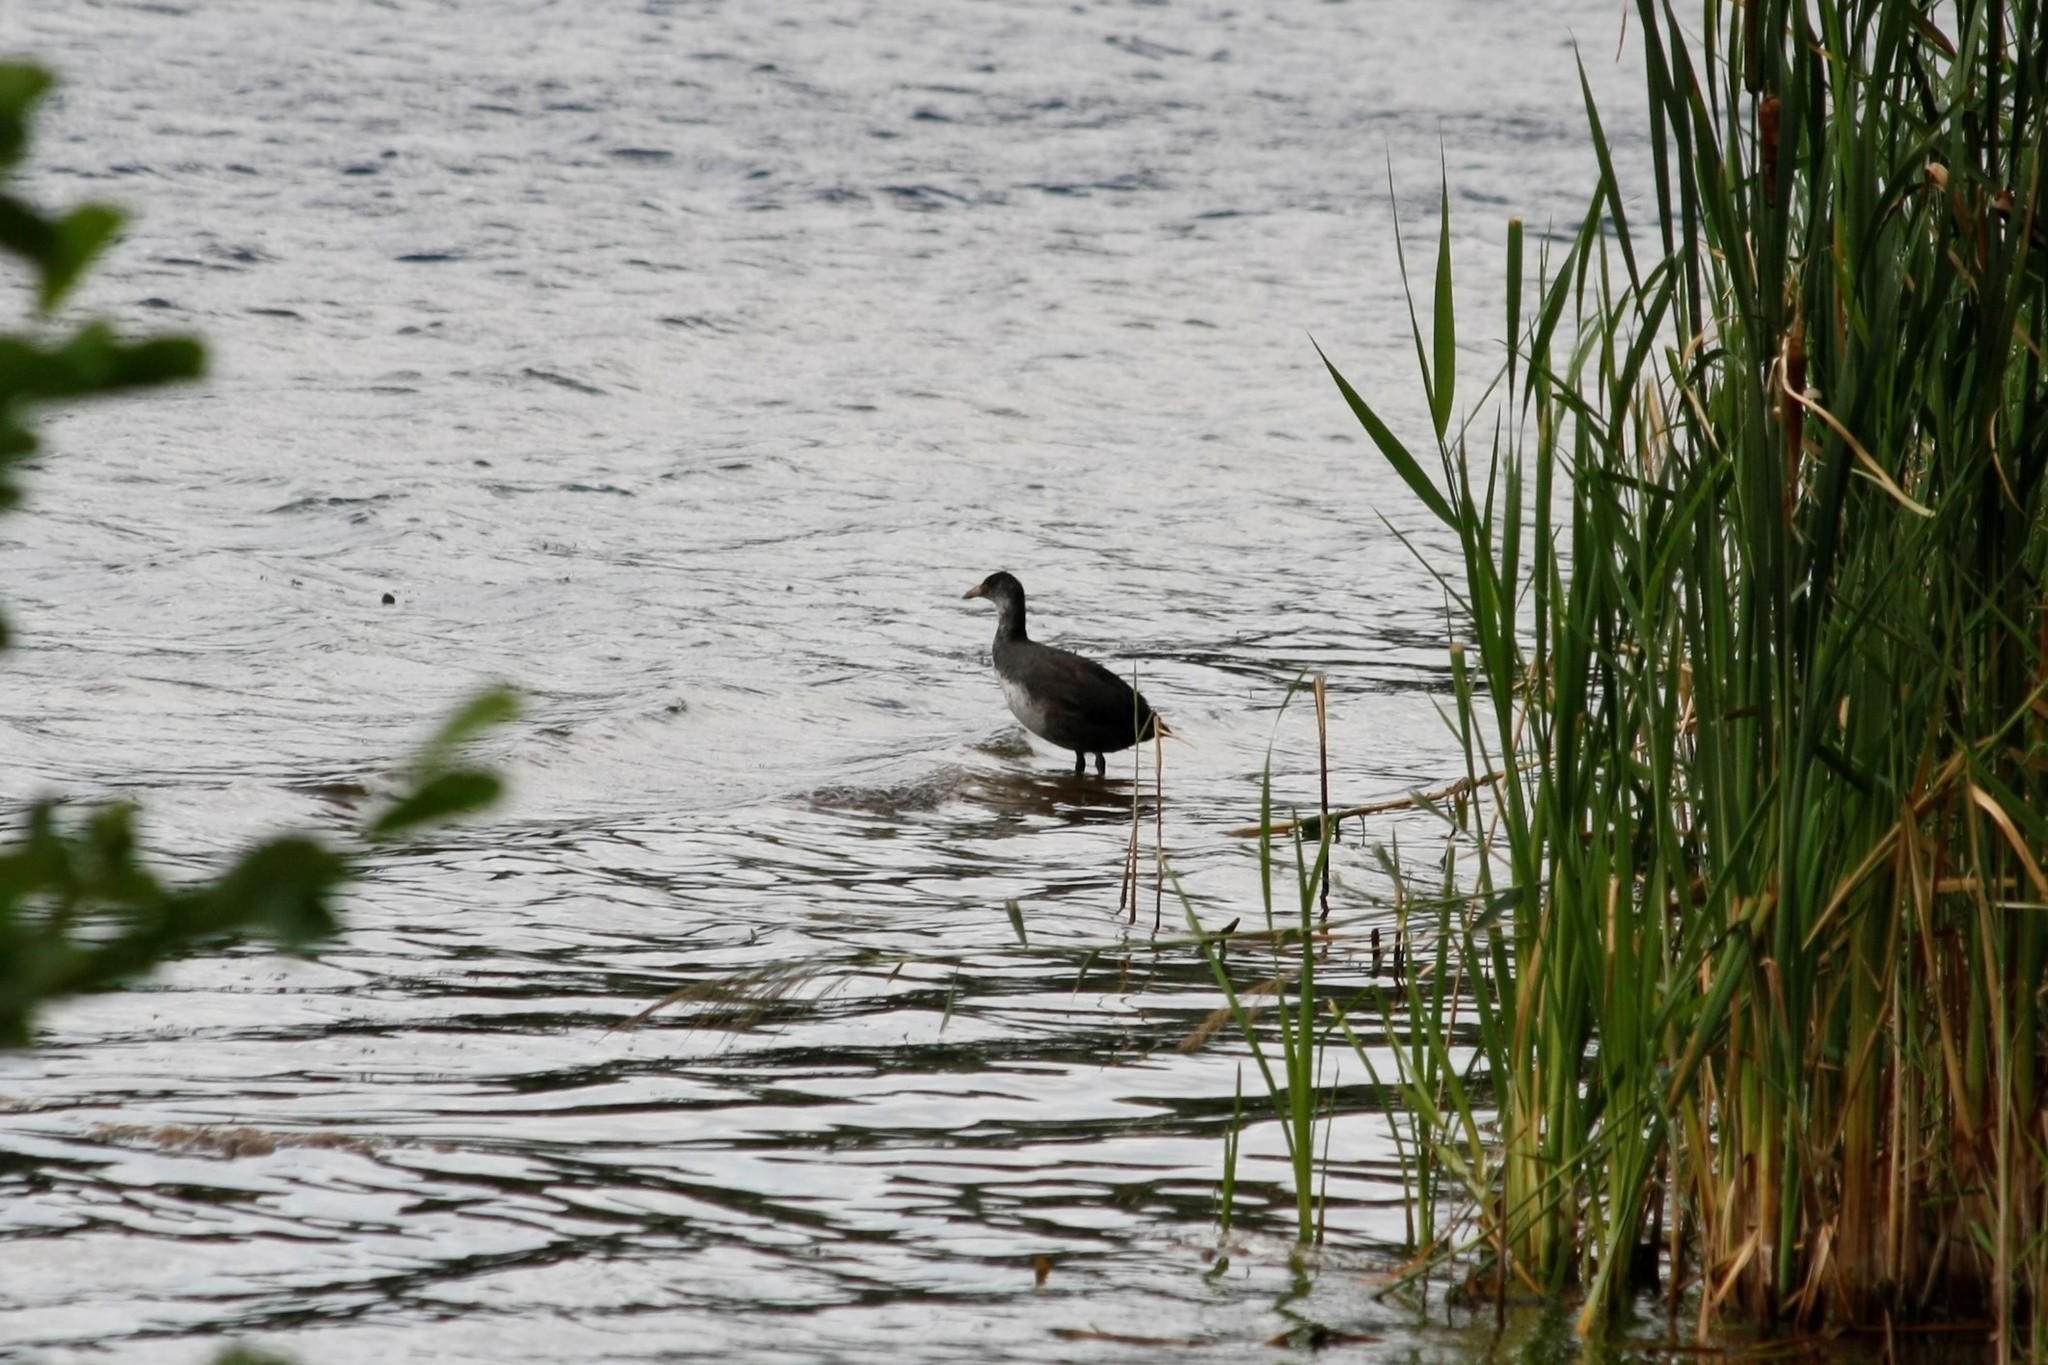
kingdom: Animalia
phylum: Chordata
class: Aves
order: Gruiformes
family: Rallidae
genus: Fulica
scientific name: Fulica atra
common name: Eurasian coot
